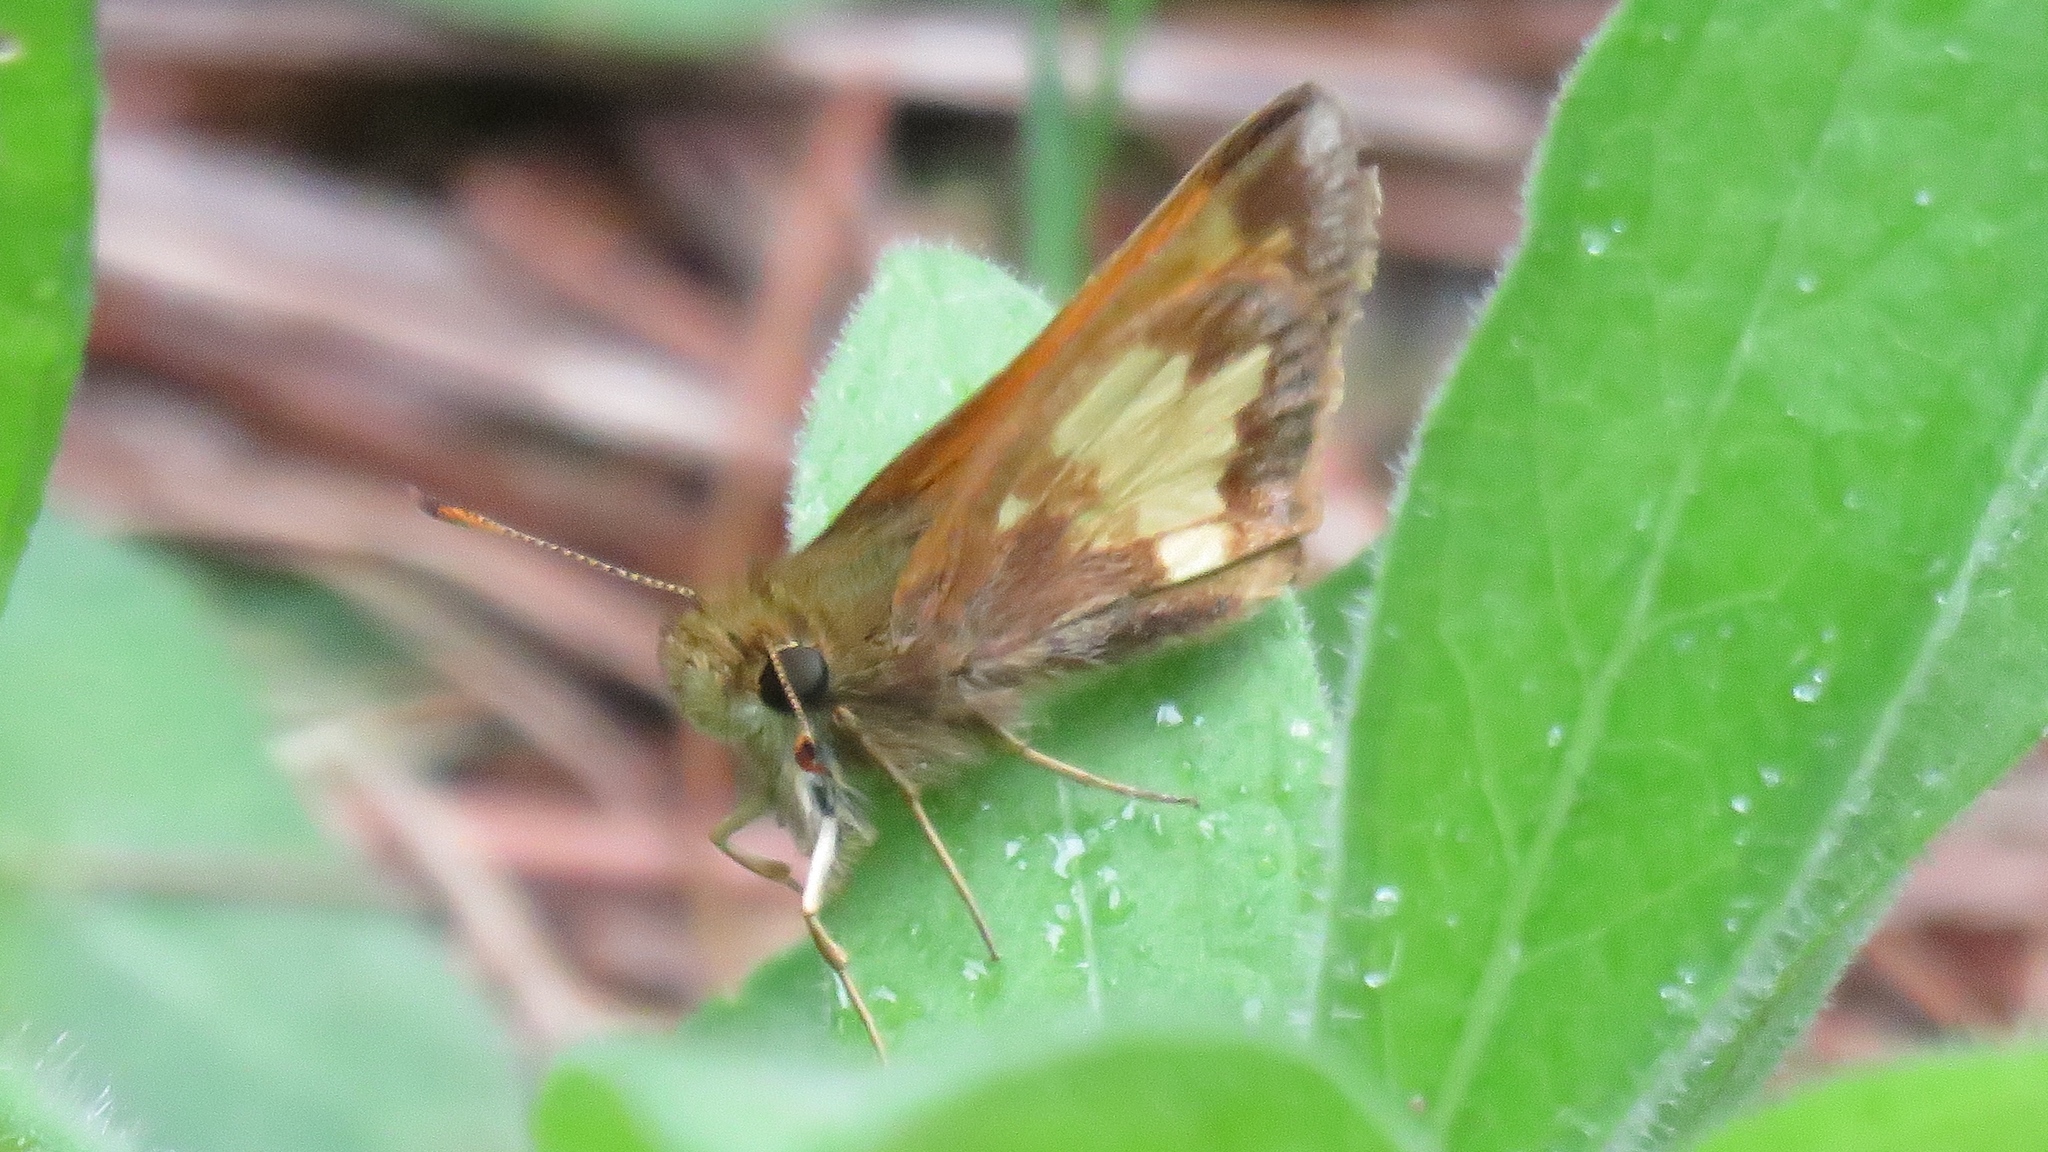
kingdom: Animalia
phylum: Arthropoda
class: Insecta
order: Lepidoptera
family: Hesperiidae
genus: Lon
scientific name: Lon hobomok
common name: Hobomok skipper
